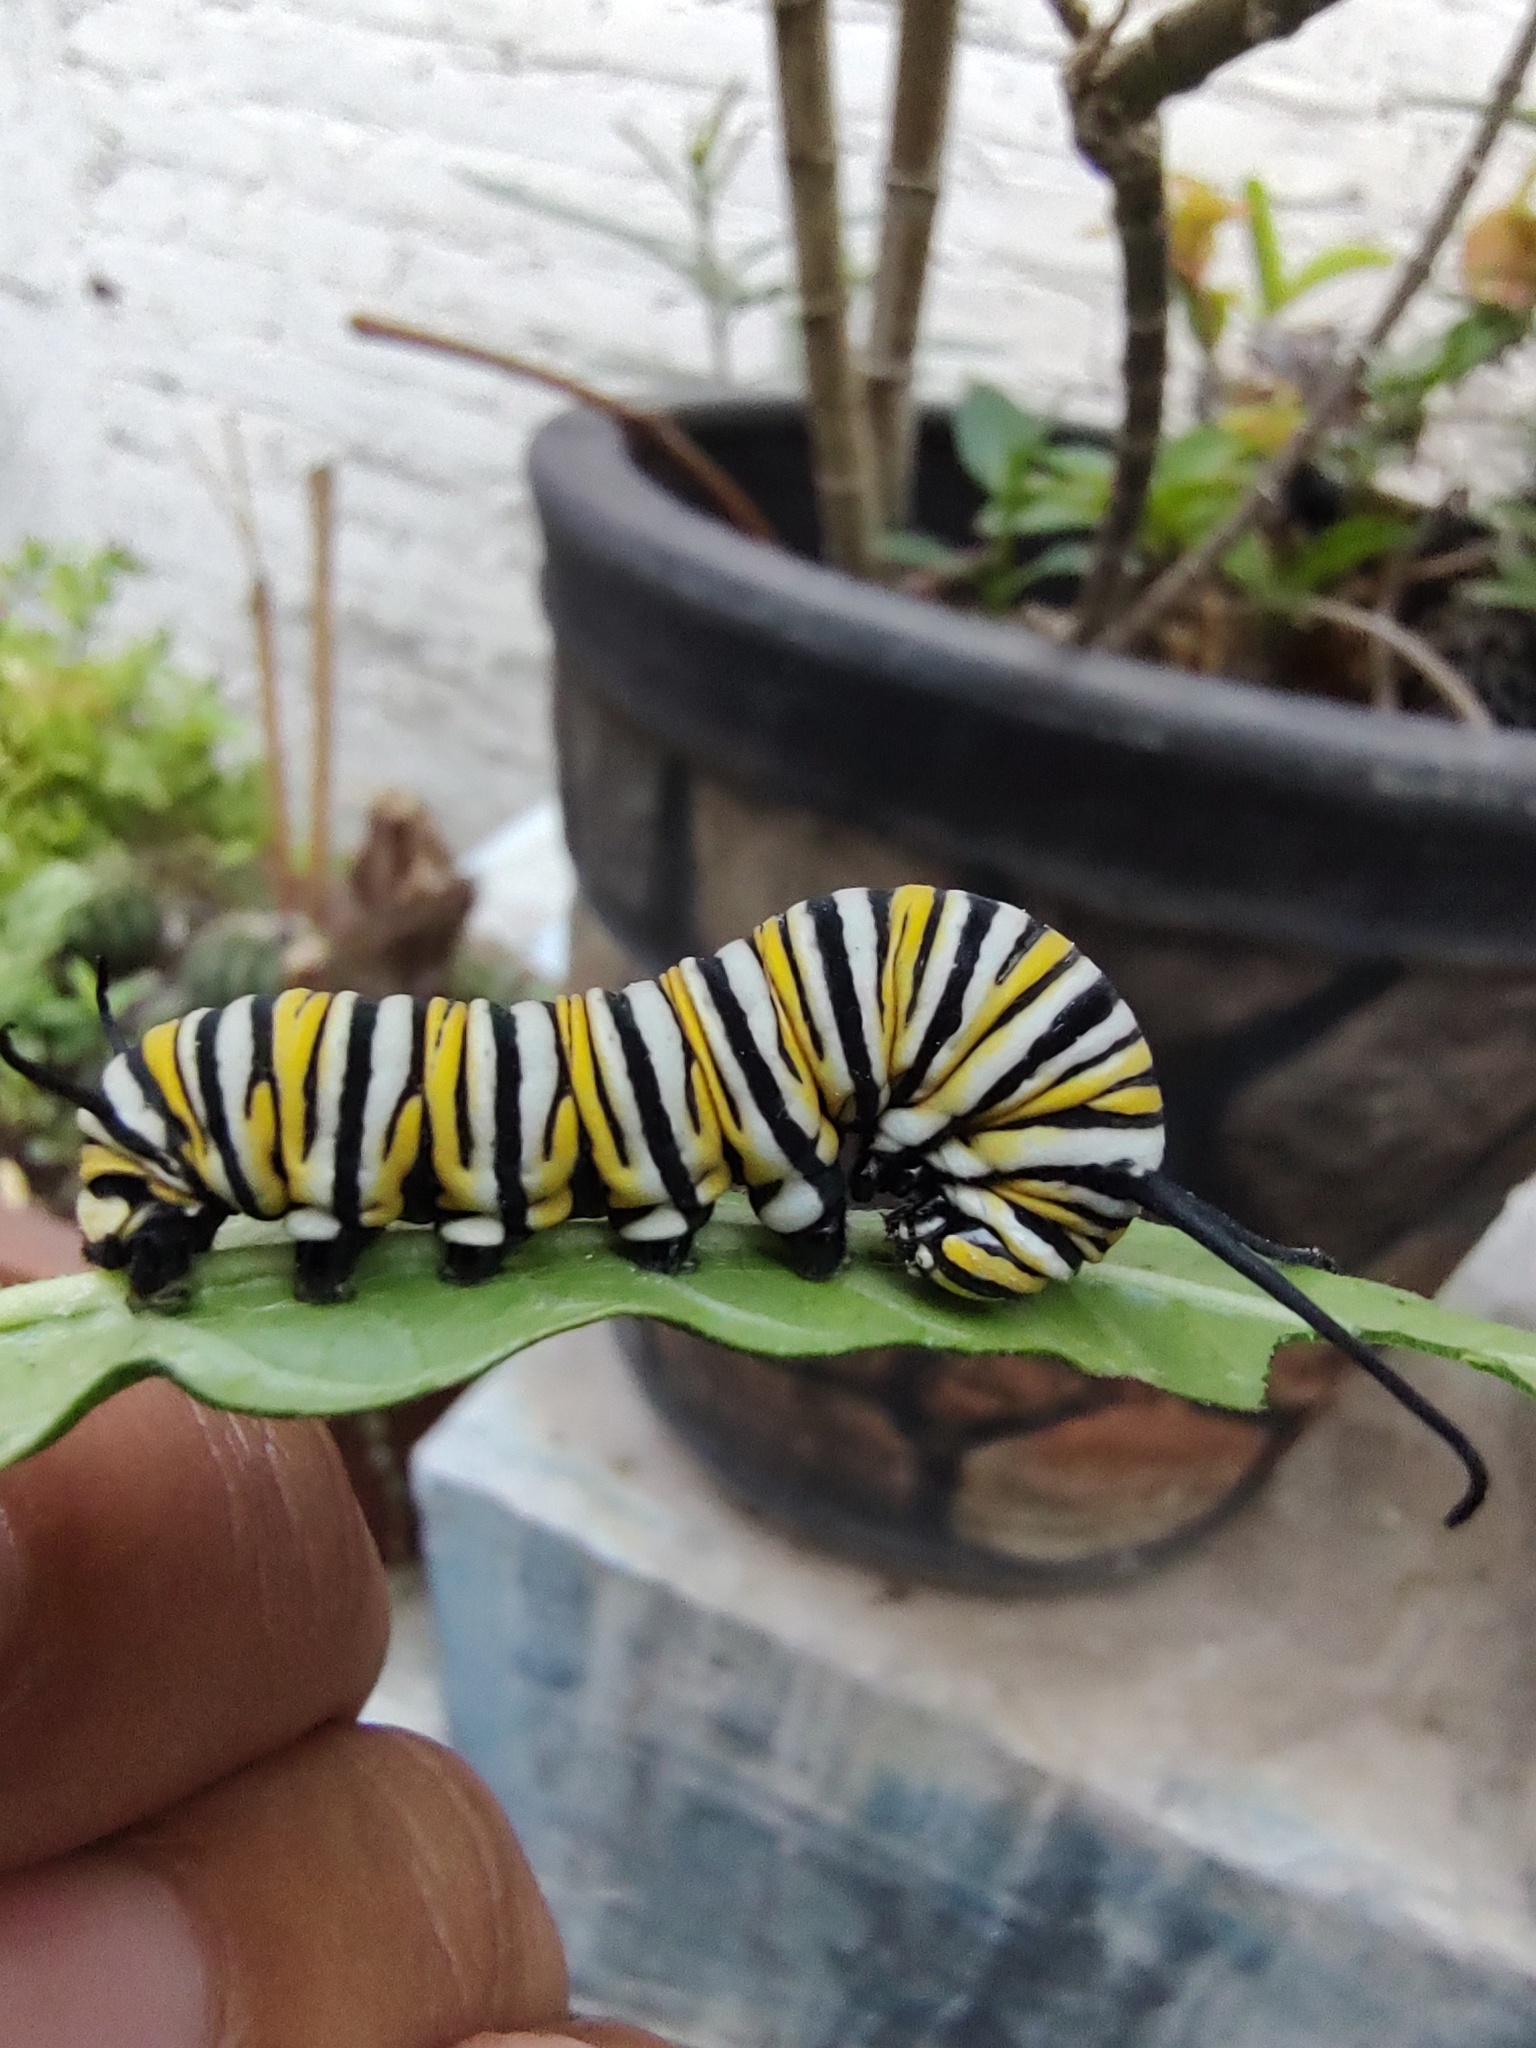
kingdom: Animalia
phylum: Arthropoda
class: Insecta
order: Lepidoptera
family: Nymphalidae
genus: Danaus
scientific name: Danaus plexippus
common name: Monarch
